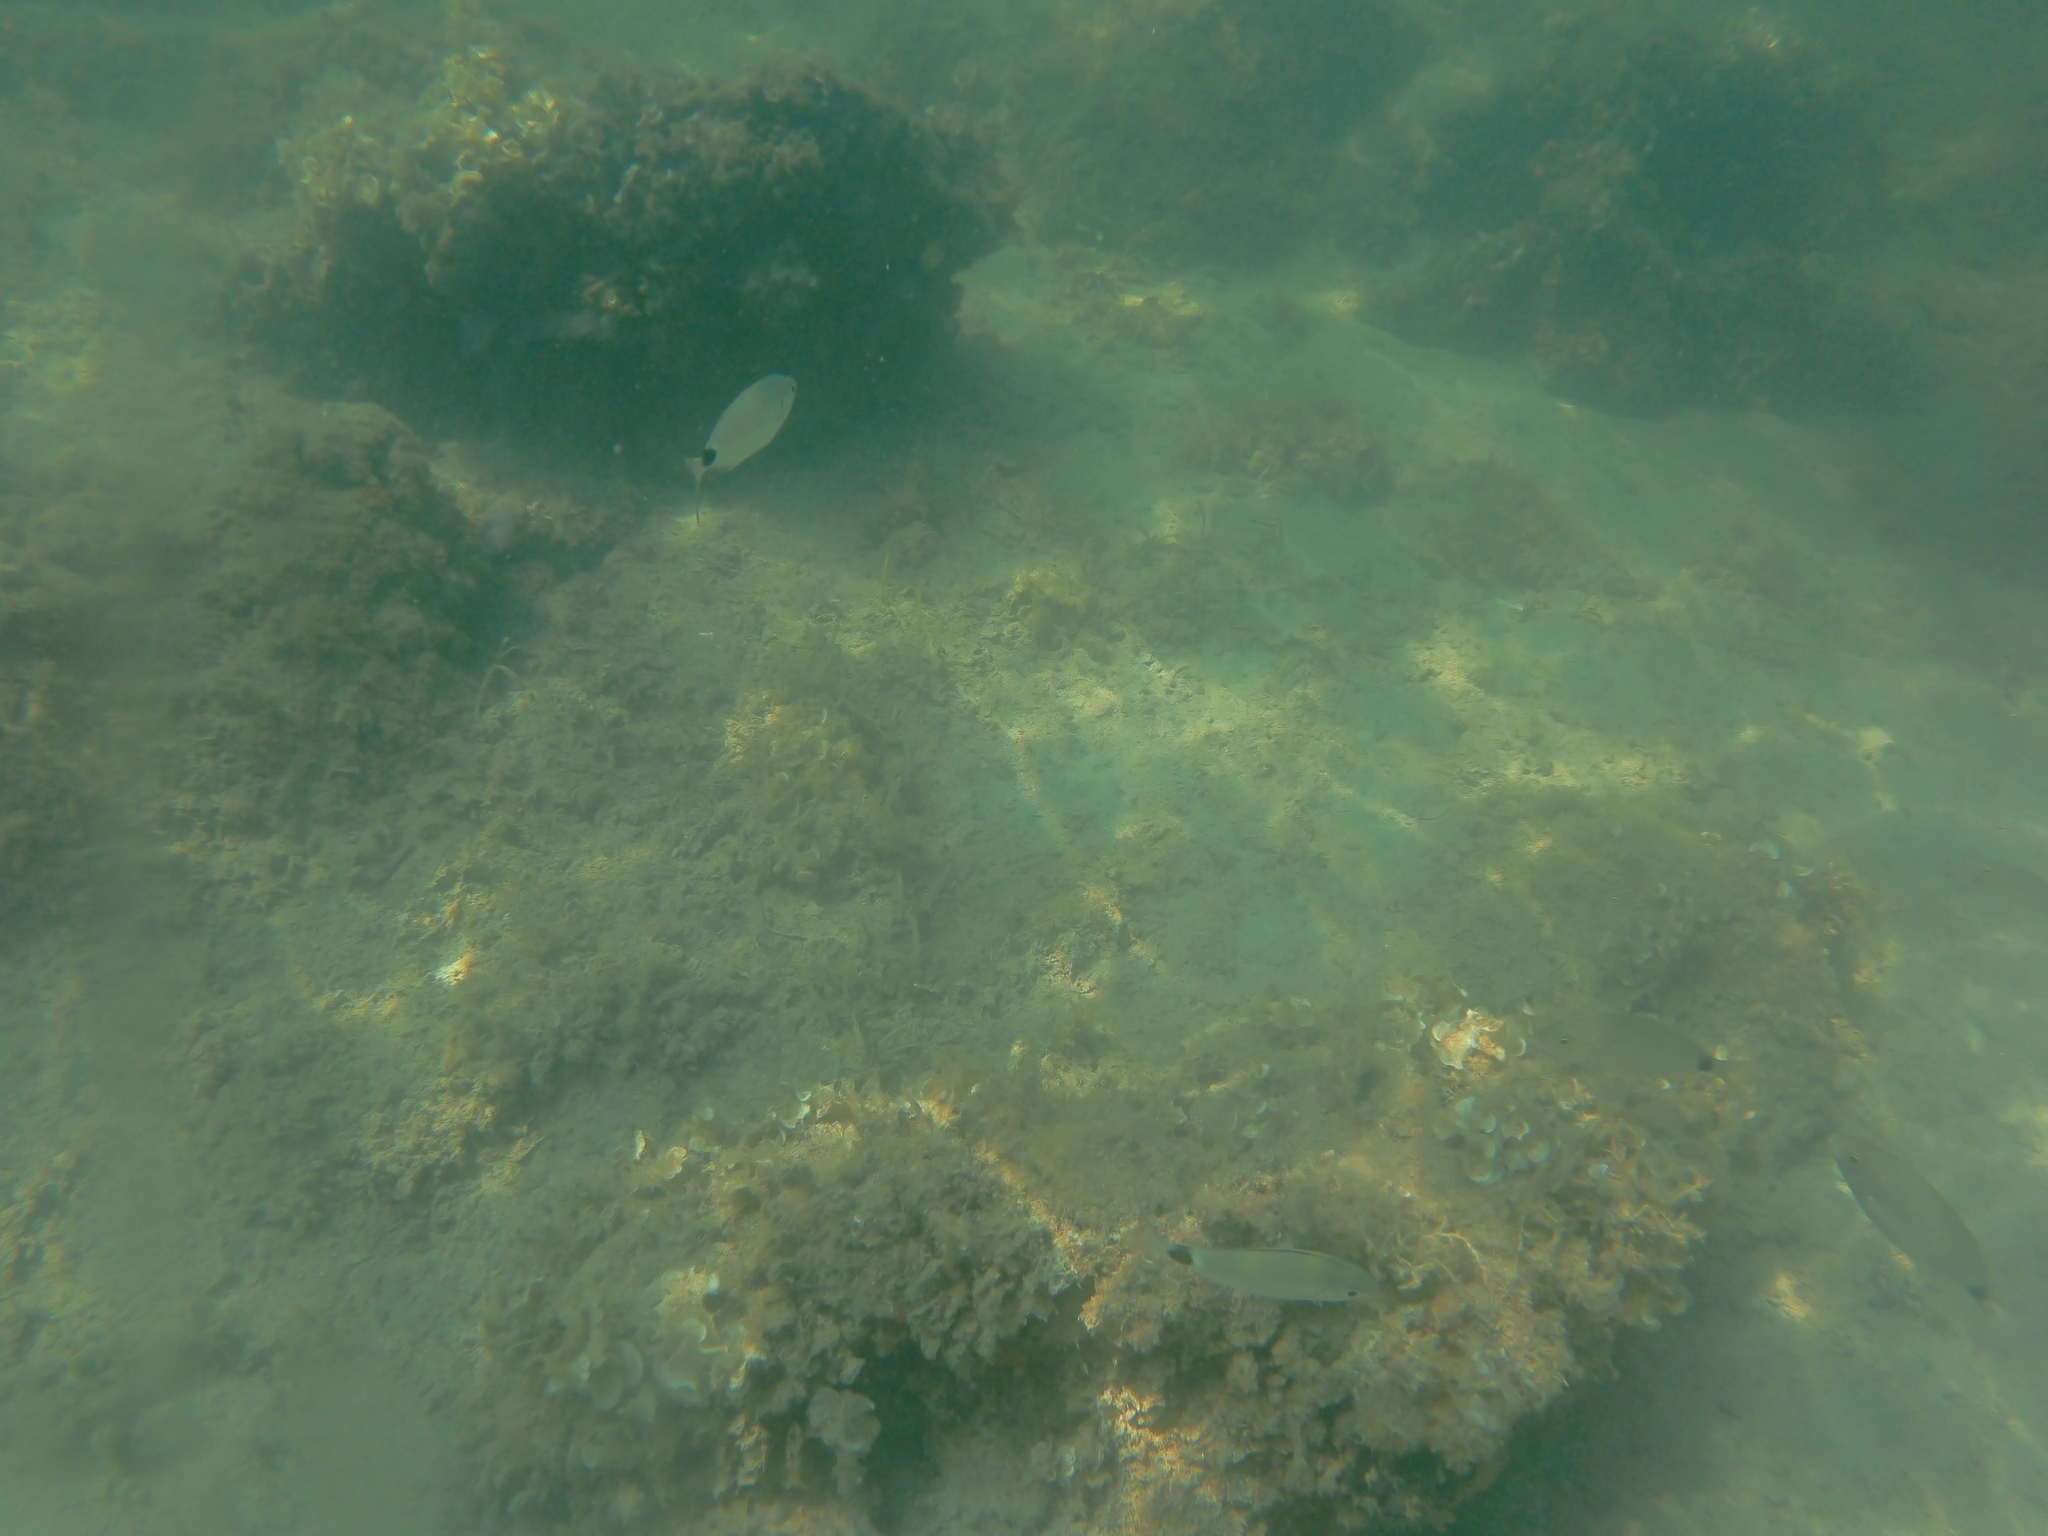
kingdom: Animalia
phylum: Chordata
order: Perciformes
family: Sparidae
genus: Oblada
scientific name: Oblada melanura
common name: Saddled seabream
